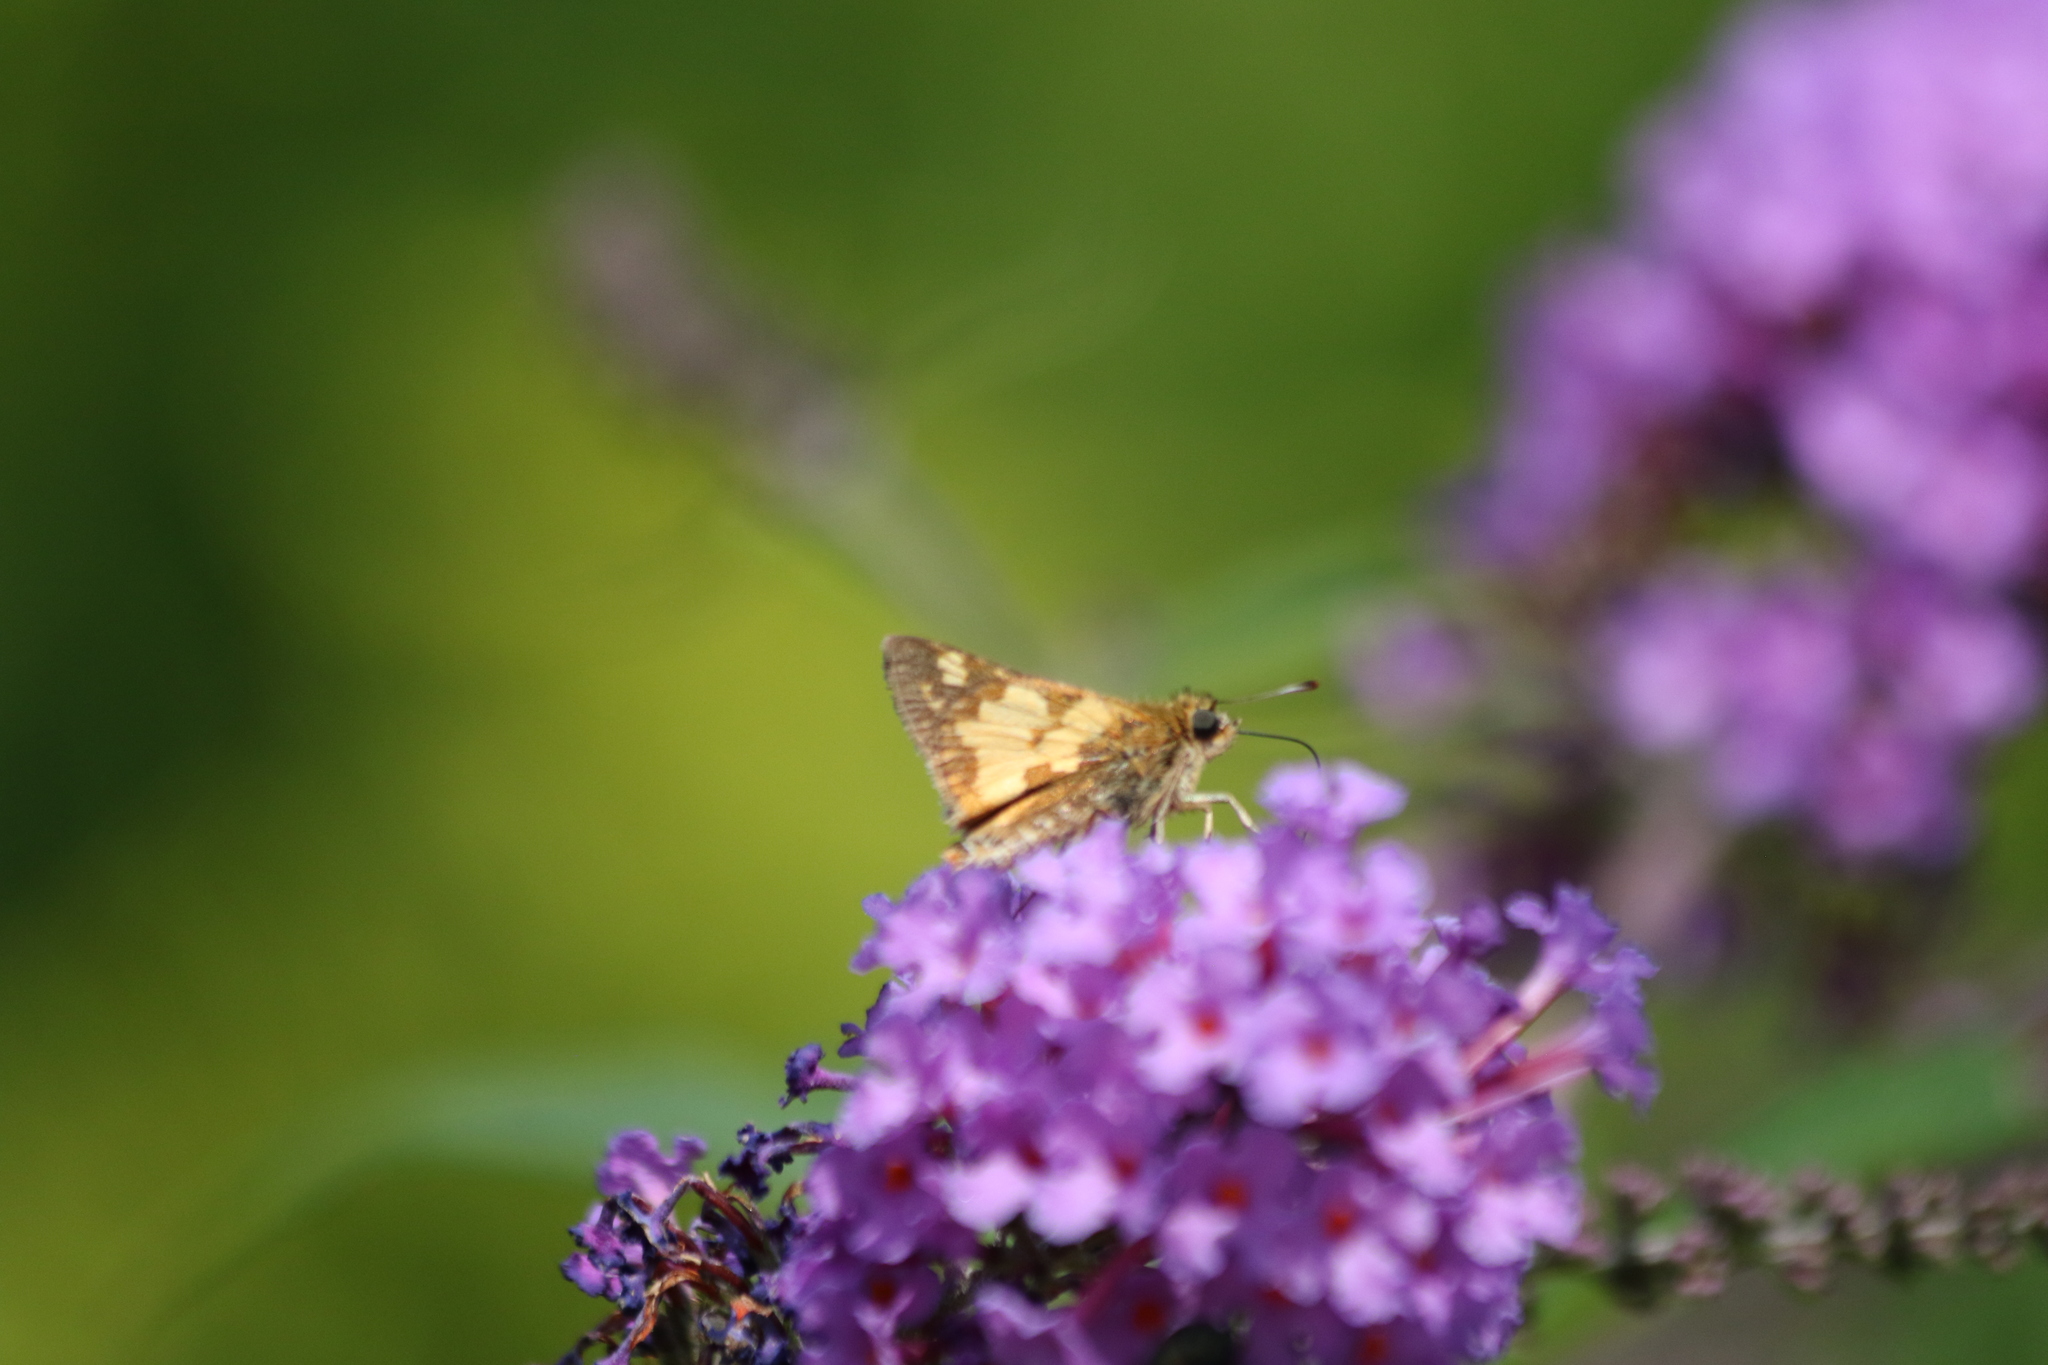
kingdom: Animalia
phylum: Arthropoda
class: Insecta
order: Lepidoptera
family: Hesperiidae
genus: Polites
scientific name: Polites coras
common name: Peck's skipper
